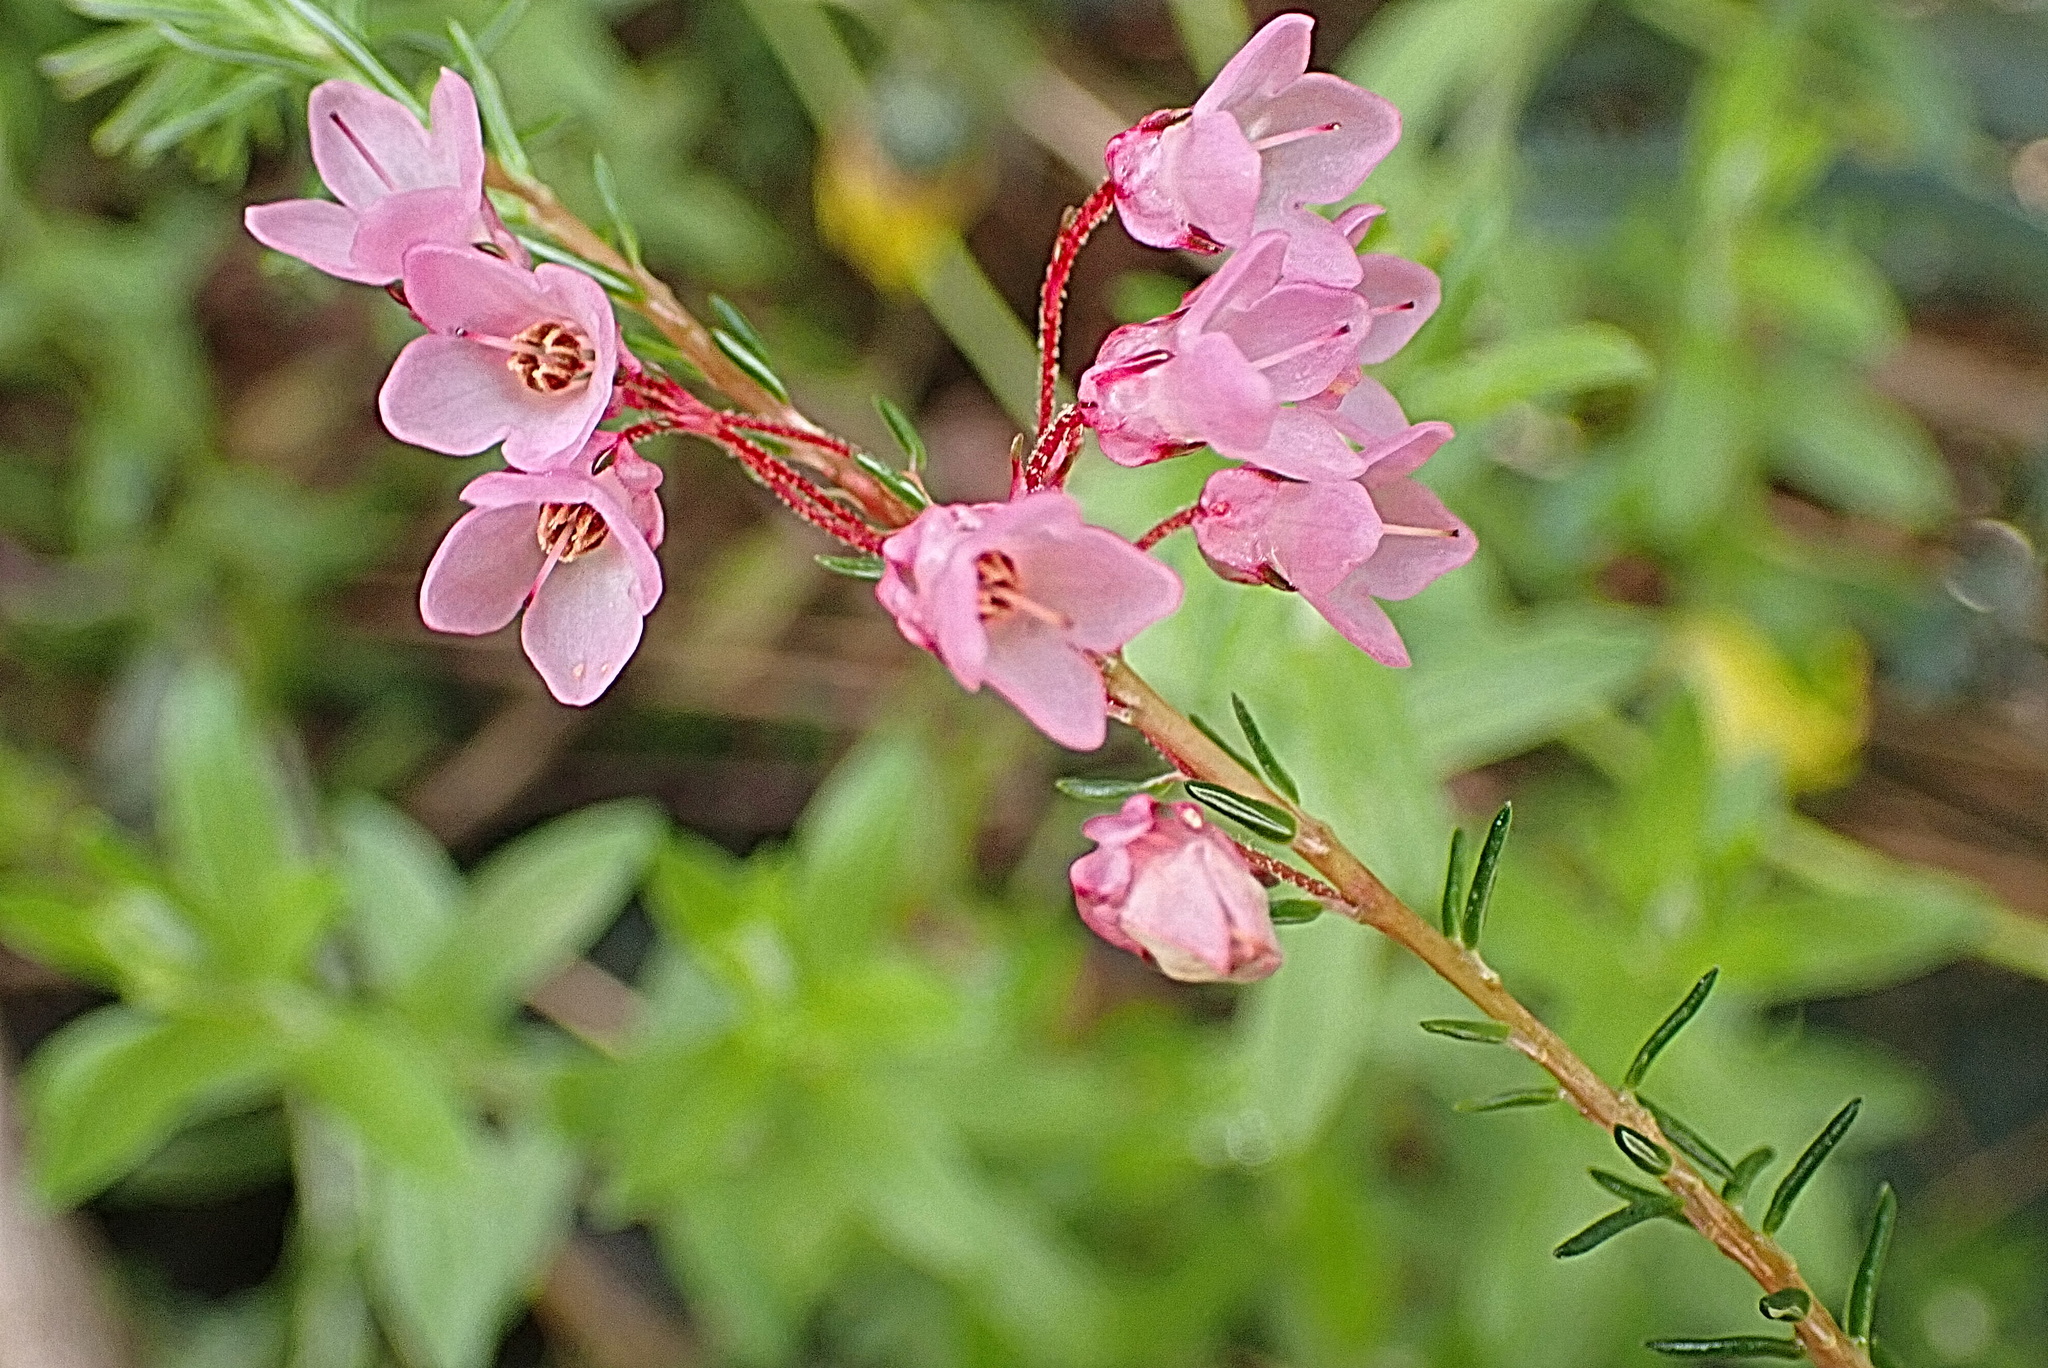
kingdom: Plantae
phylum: Tracheophyta
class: Magnoliopsida
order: Ericales
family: Ericaceae
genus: Erica
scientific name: Erica cubica
